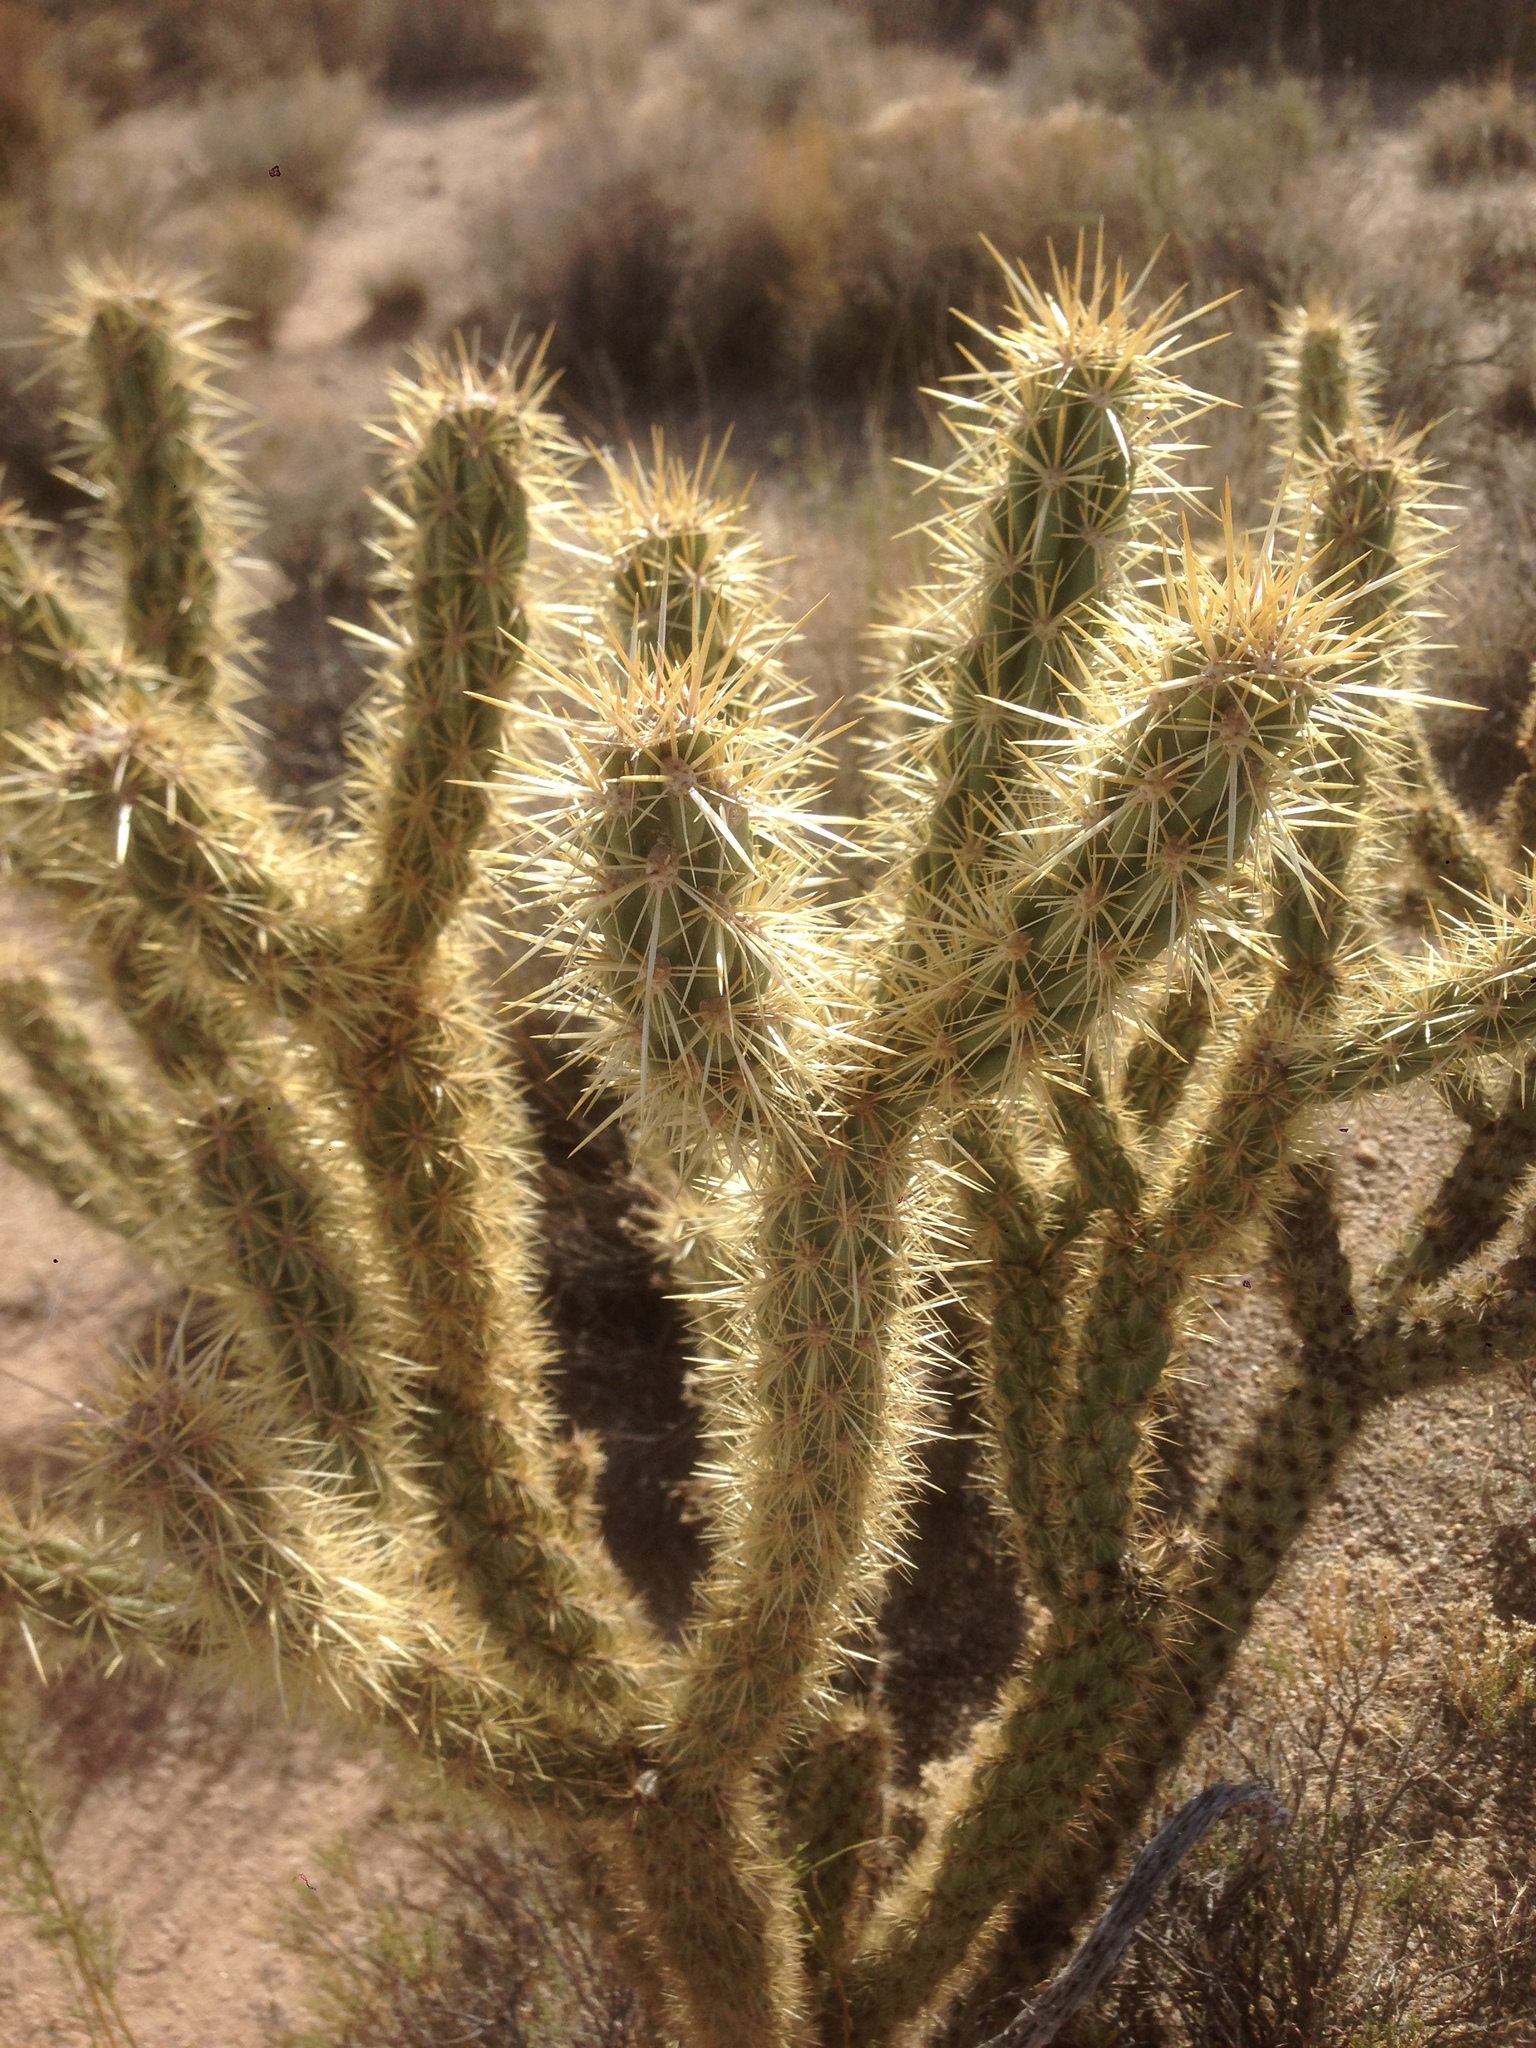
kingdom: Plantae
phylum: Tracheophyta
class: Magnoliopsida
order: Caryophyllales
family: Cactaceae
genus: Cylindropuntia
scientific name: Cylindropuntia acanthocarpa
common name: Buckhorn cholla
